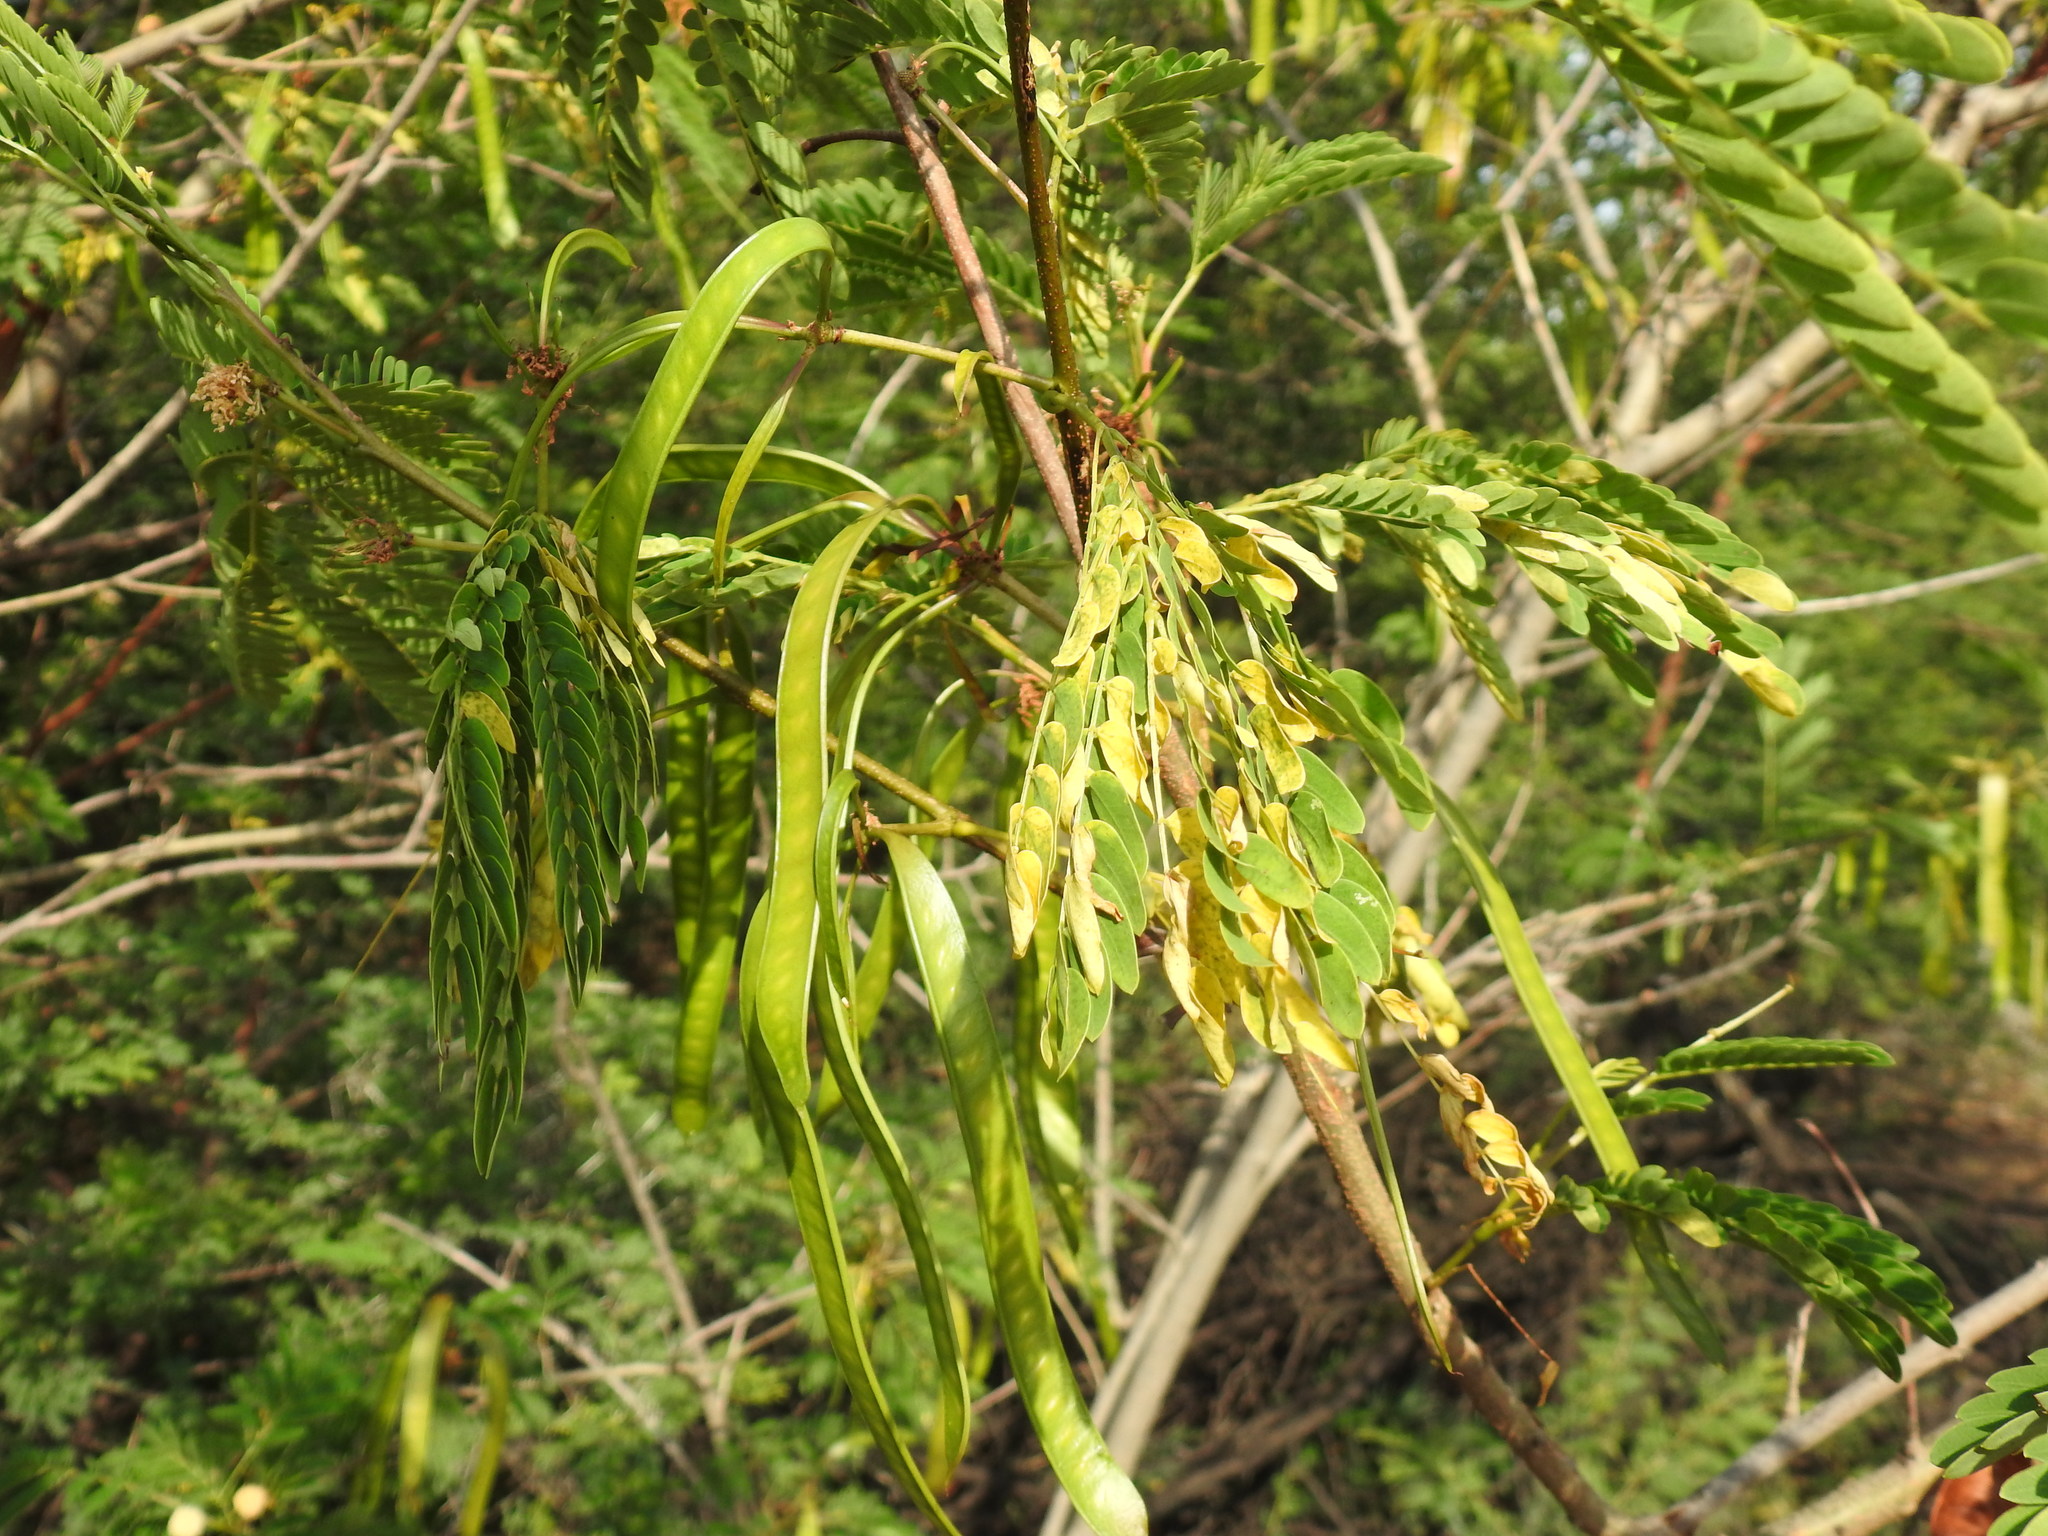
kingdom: Plantae
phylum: Tracheophyta
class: Magnoliopsida
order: Fabales
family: Fabaceae
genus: Leucaena
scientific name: Leucaena leucocephala
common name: White leadtree
